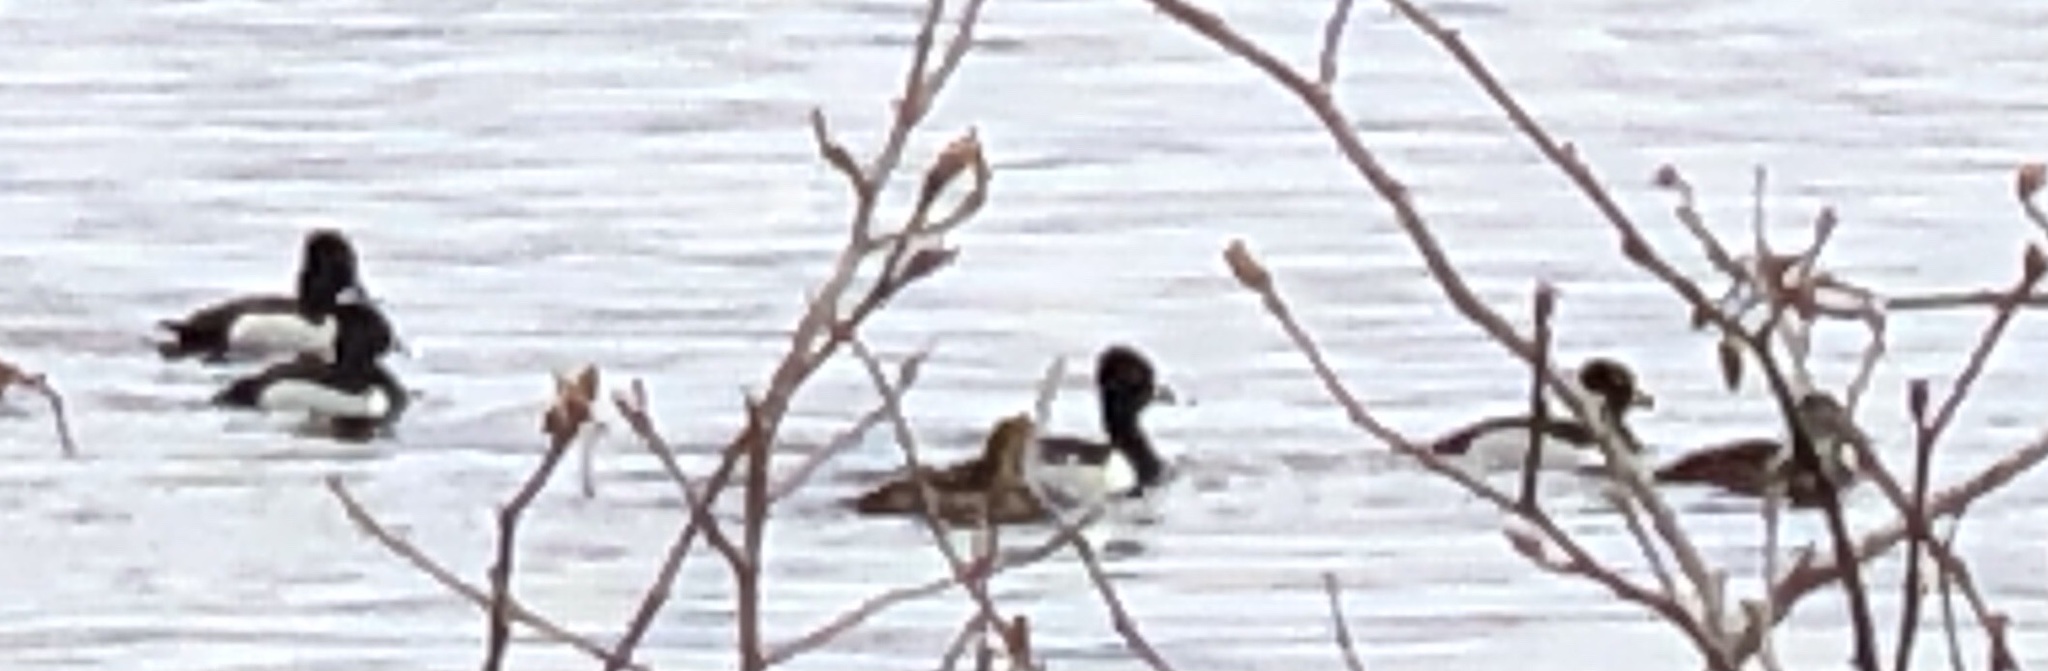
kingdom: Animalia
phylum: Chordata
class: Aves
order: Anseriformes
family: Anatidae
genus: Aythya
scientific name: Aythya collaris
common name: Ring-necked duck
